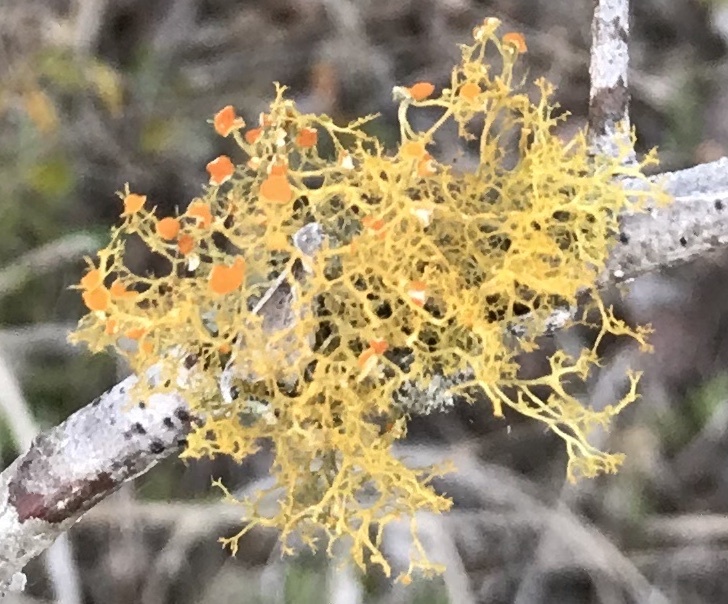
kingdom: Fungi
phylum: Ascomycota
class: Lecanoromycetes
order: Teloschistales
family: Teloschistaceae
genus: Teloschistes
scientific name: Teloschistes exilis
